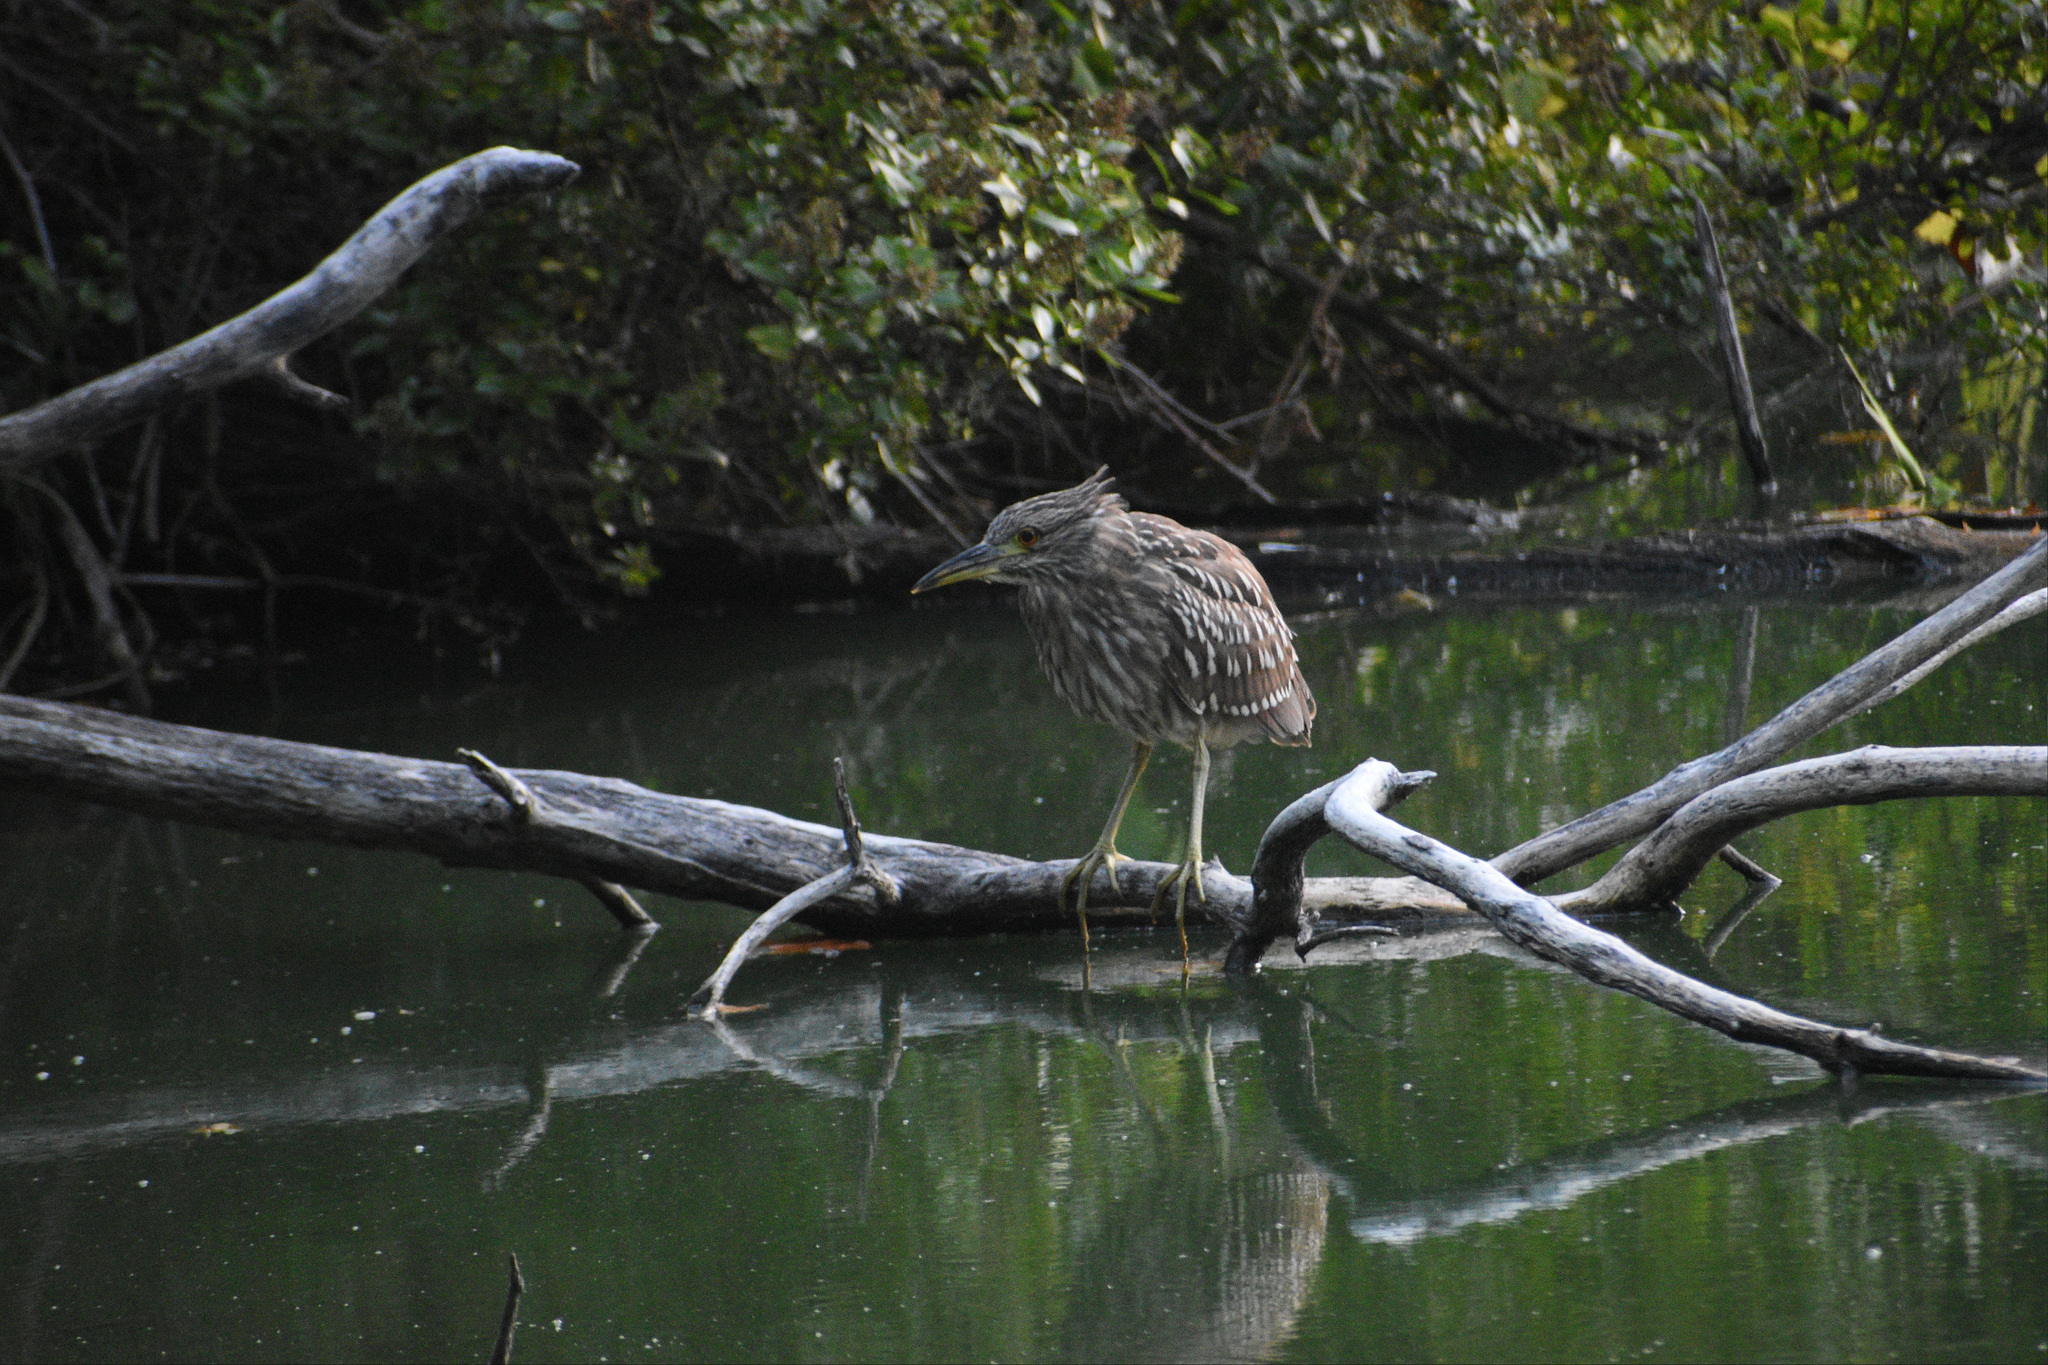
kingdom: Animalia
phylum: Chordata
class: Aves
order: Pelecaniformes
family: Ardeidae
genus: Nycticorax
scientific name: Nycticorax nycticorax
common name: Black-crowned night heron
